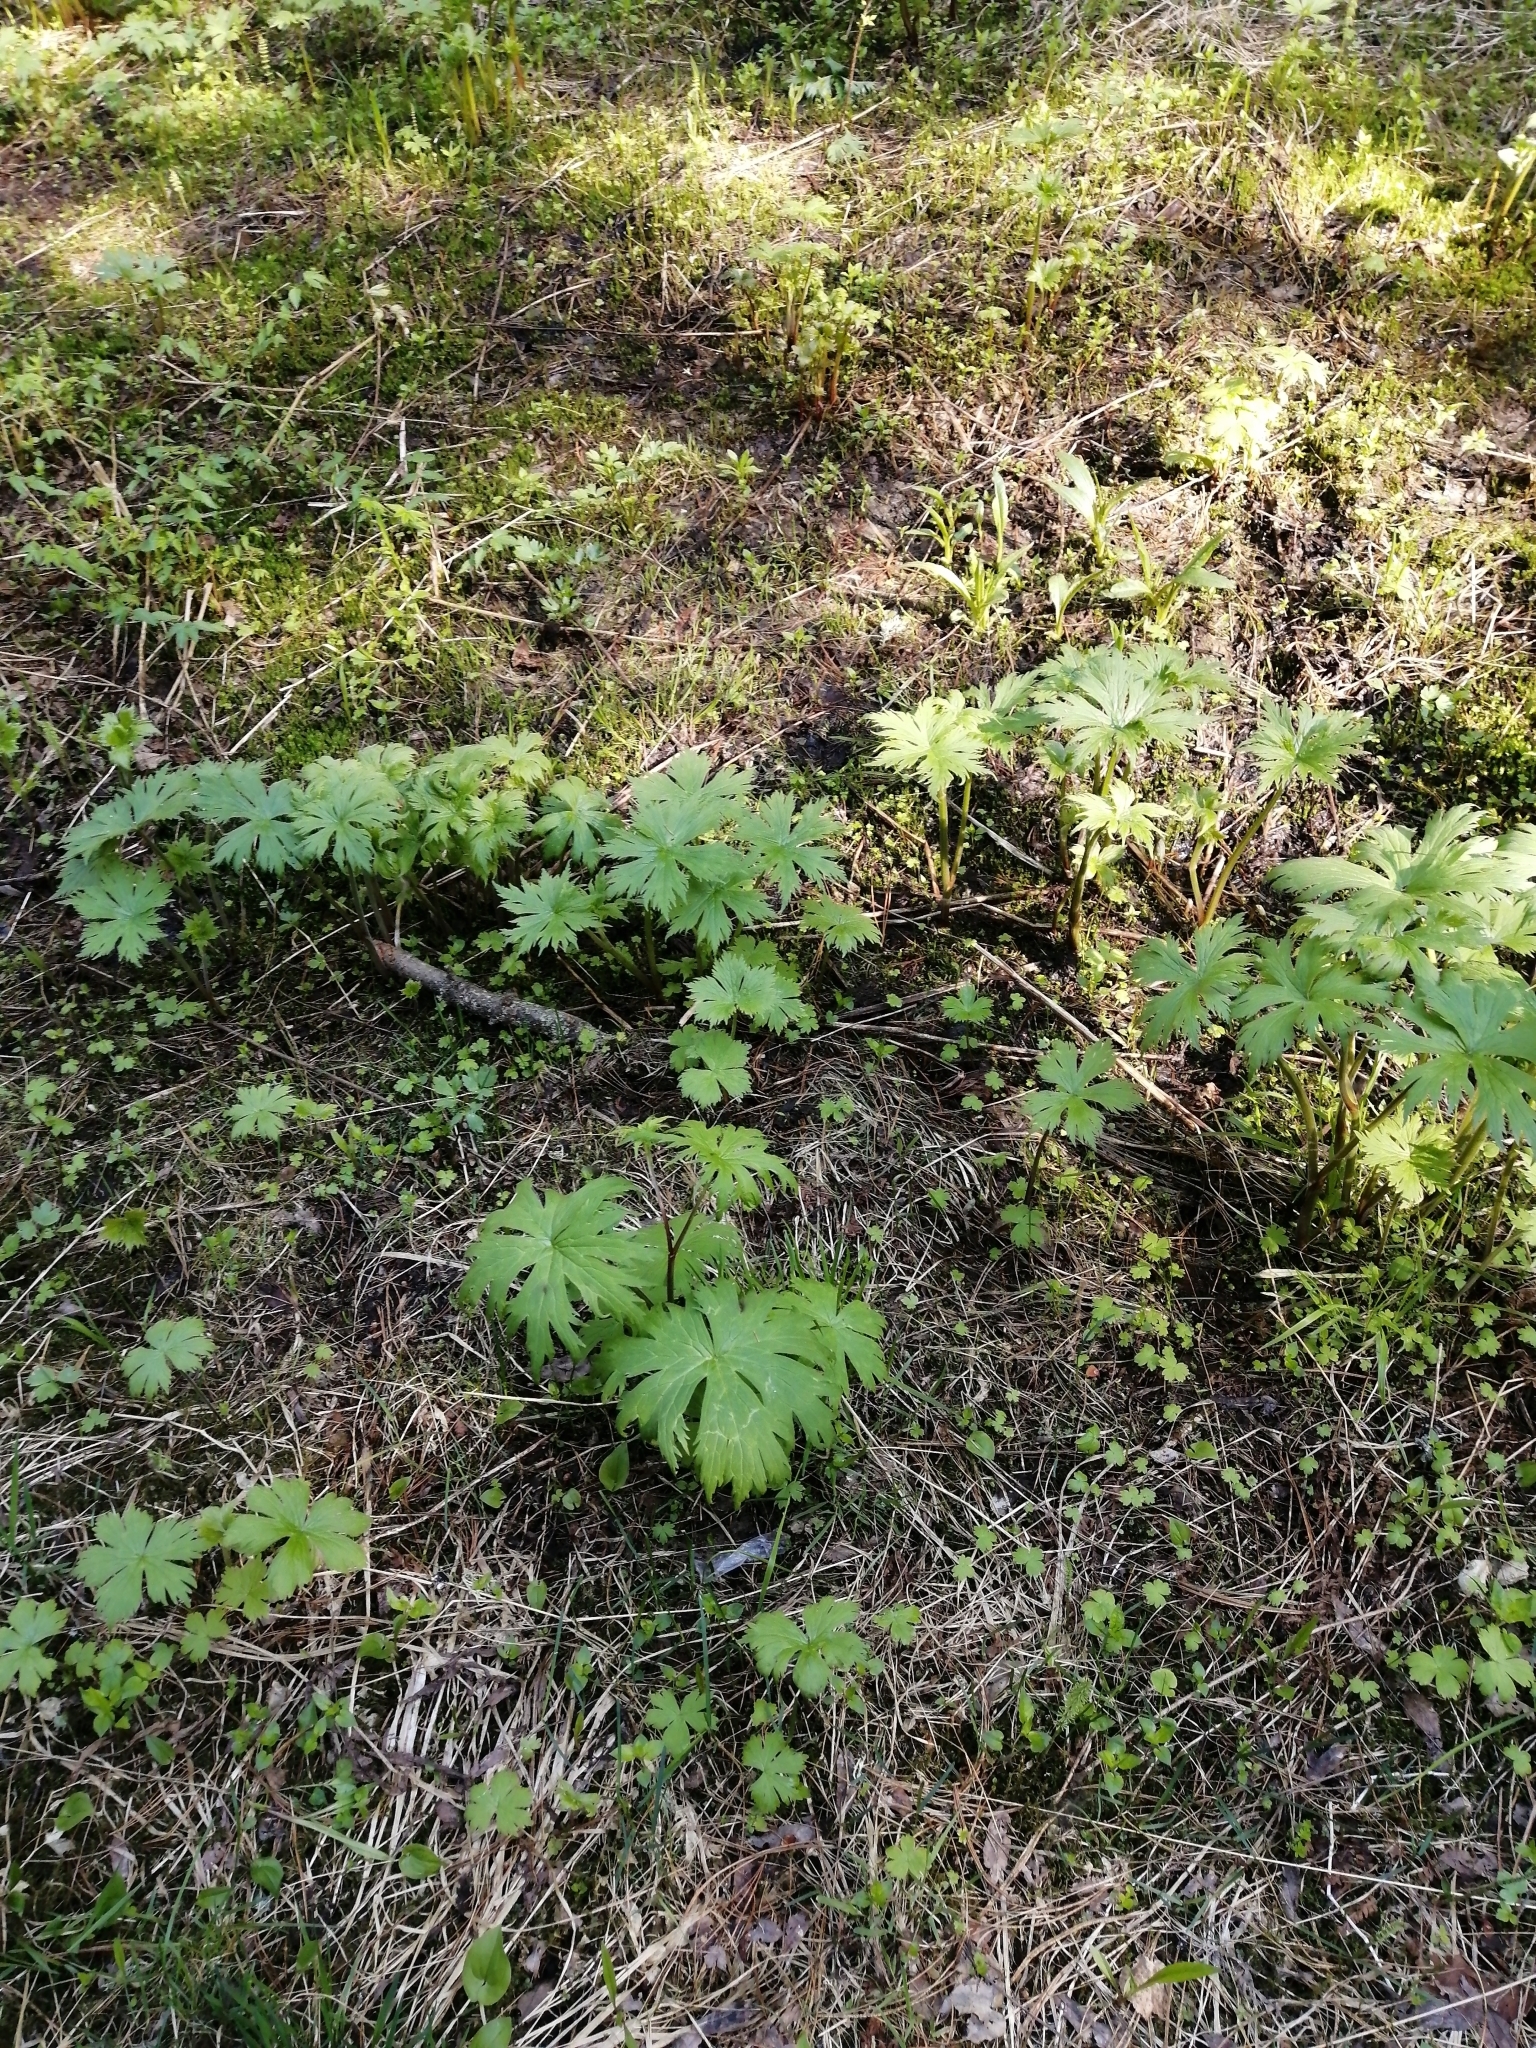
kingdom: Plantae
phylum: Tracheophyta
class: Magnoliopsida
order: Ranunculales
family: Ranunculaceae
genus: Aconitum
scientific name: Aconitum septentrionale
